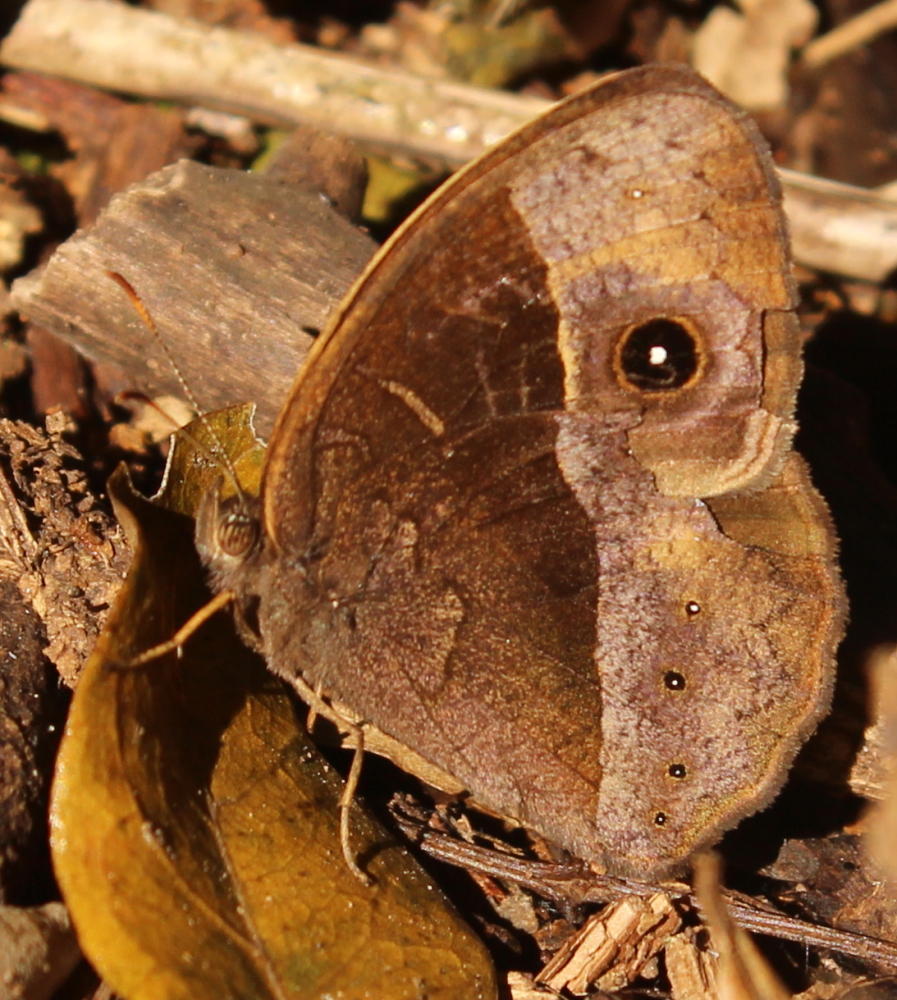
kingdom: Animalia
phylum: Arthropoda
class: Insecta
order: Lepidoptera
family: Nymphalidae
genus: Mycalesis
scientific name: Mycalesis rhacotis
